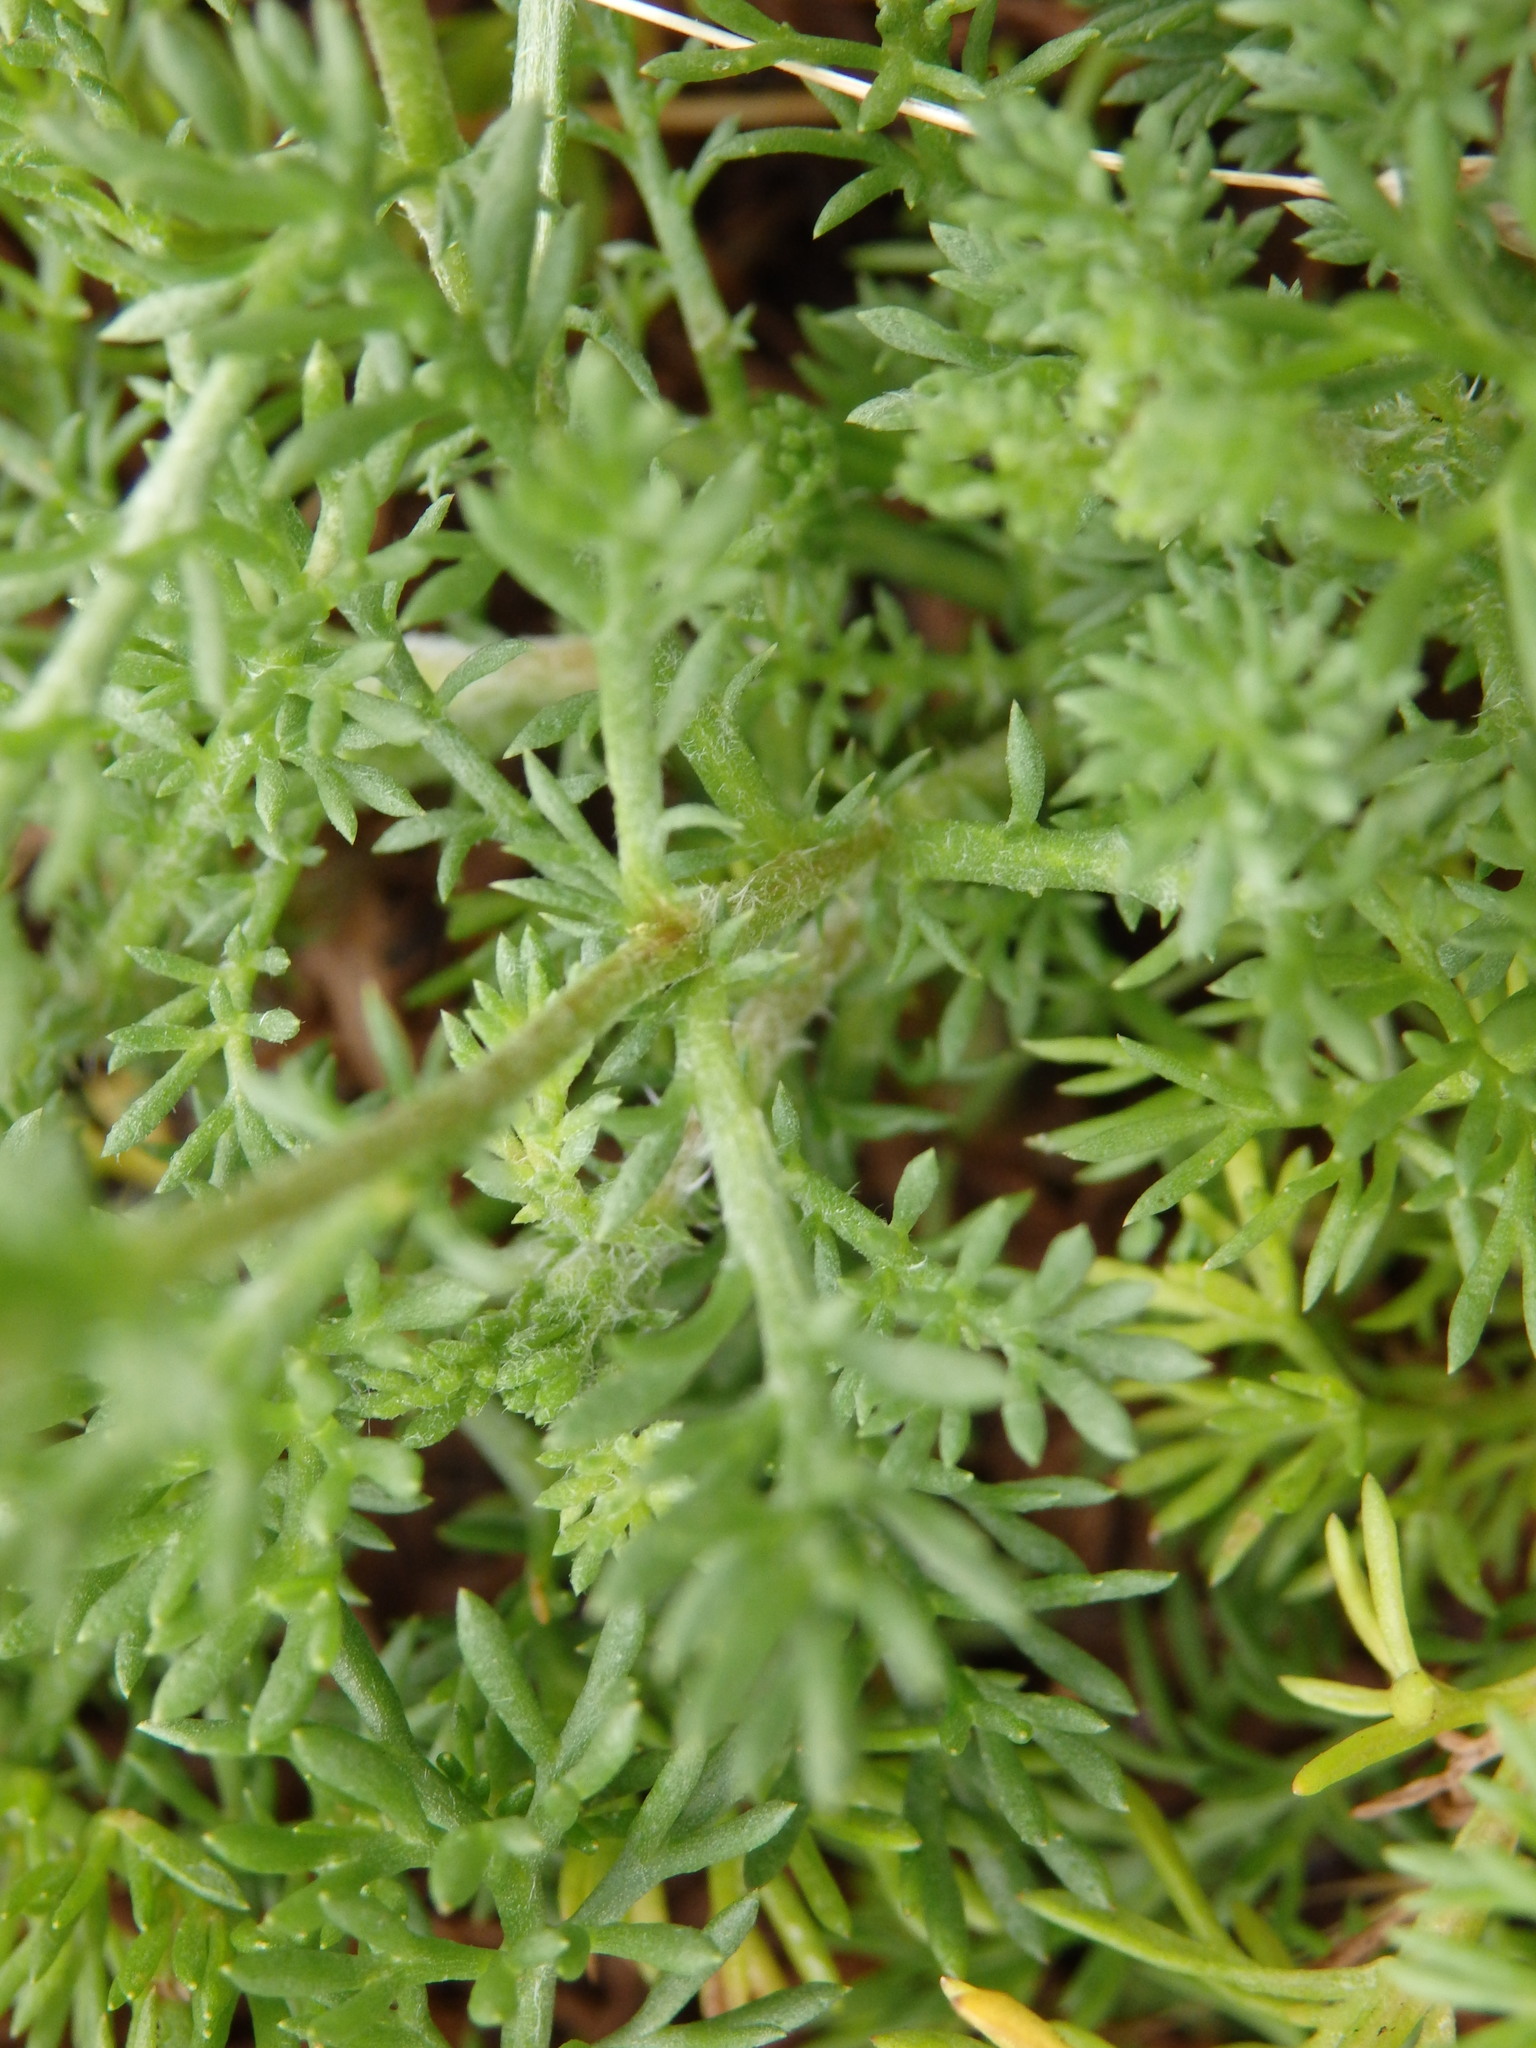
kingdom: Plantae
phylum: Tracheophyta
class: Magnoliopsida
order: Asterales
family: Asteraceae
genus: Chamaemelum
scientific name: Chamaemelum nobile
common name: Roman chamomile
